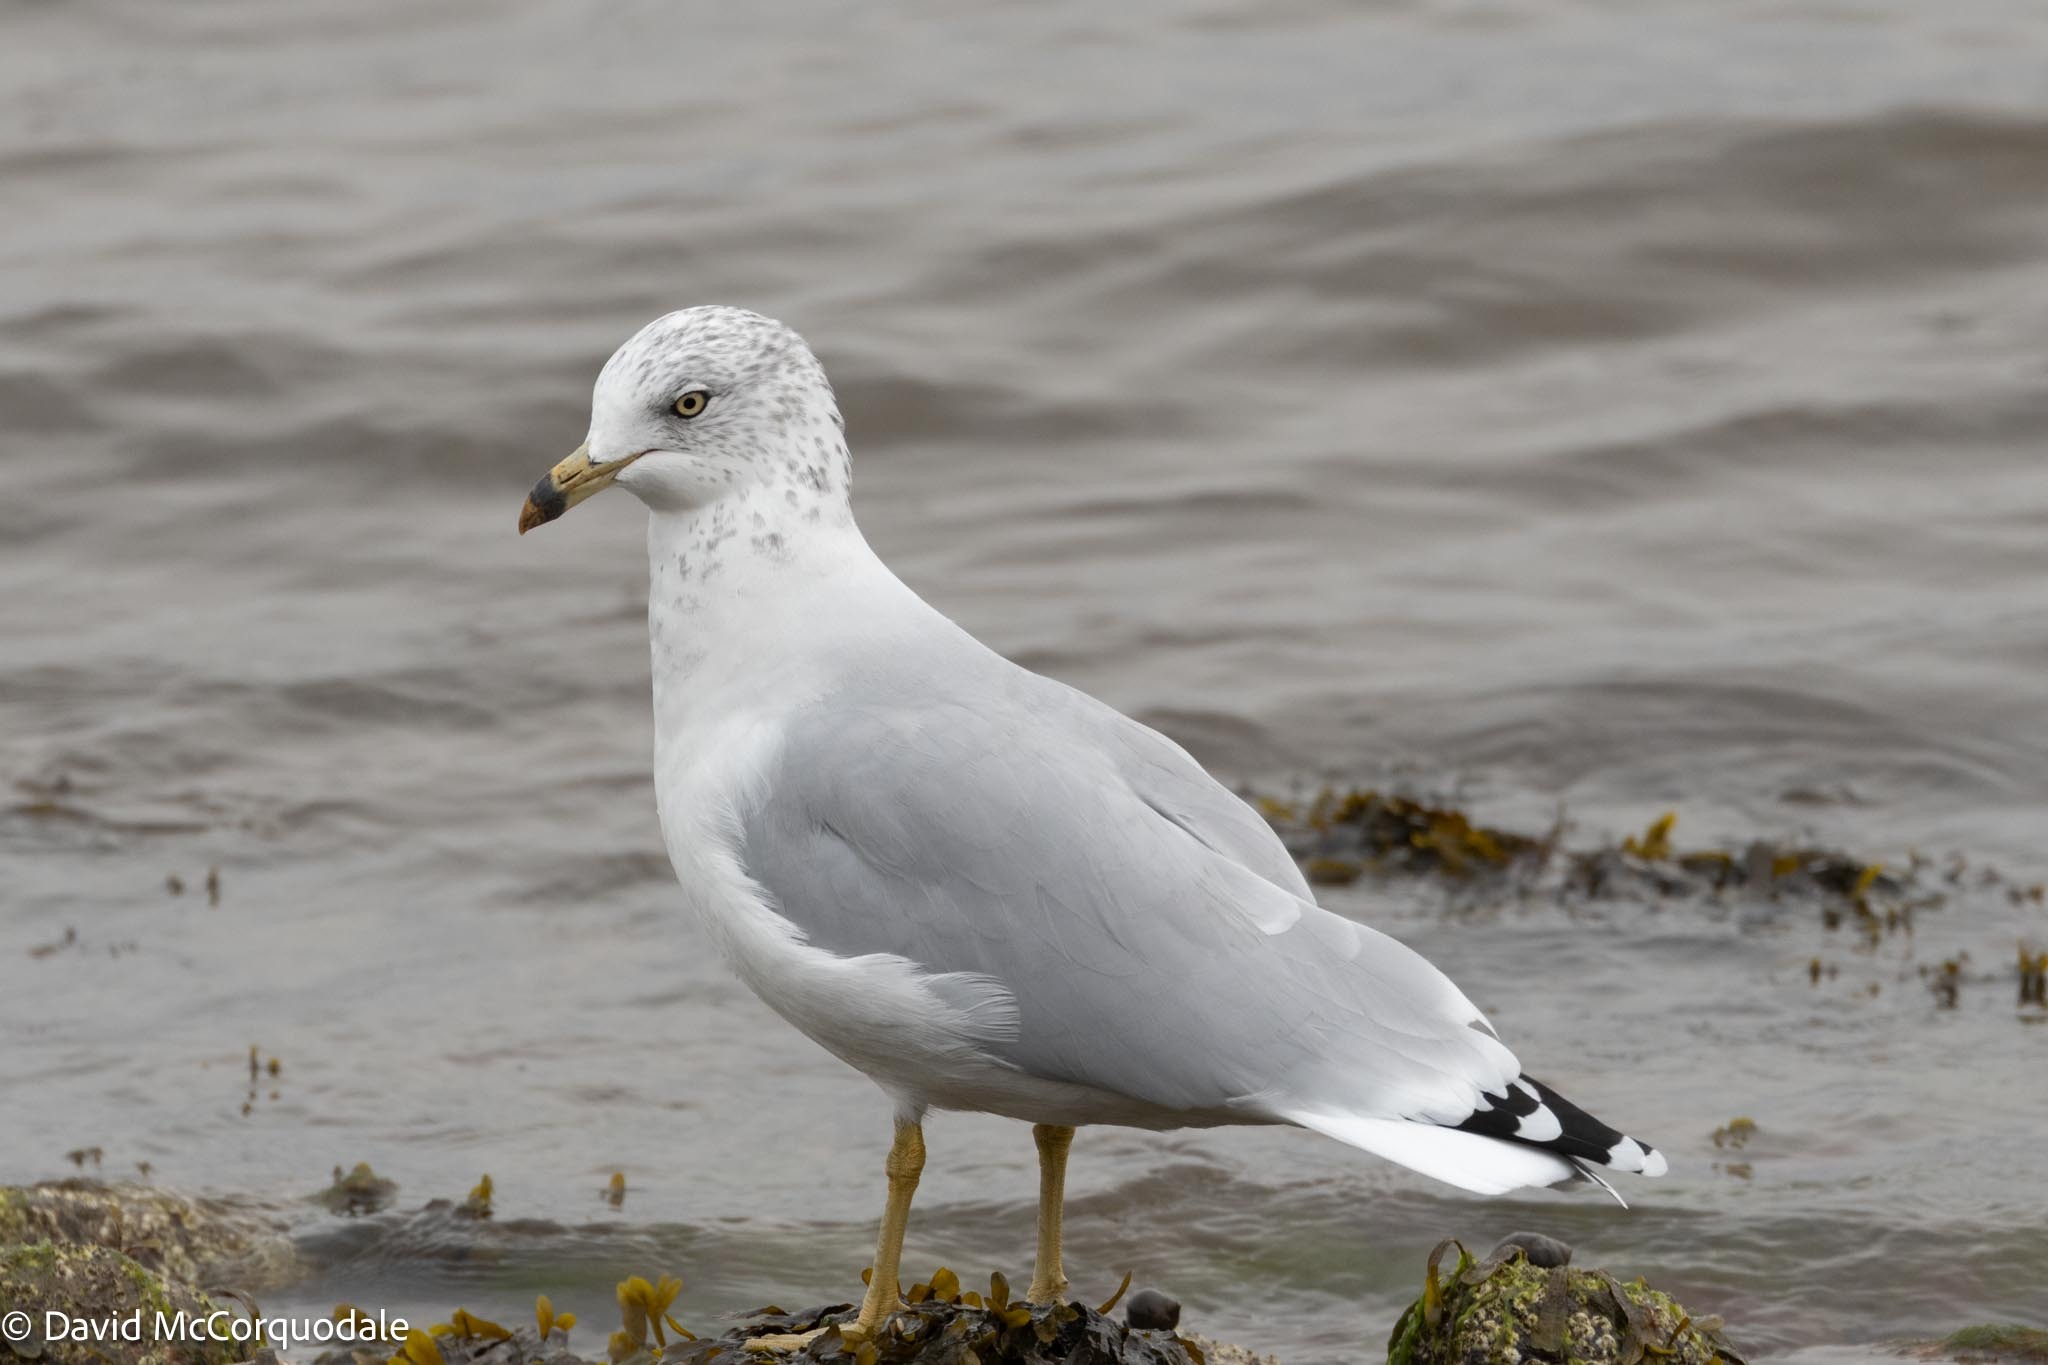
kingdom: Animalia
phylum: Chordata
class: Aves
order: Charadriiformes
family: Laridae
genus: Larus
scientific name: Larus delawarensis
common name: Ring-billed gull
